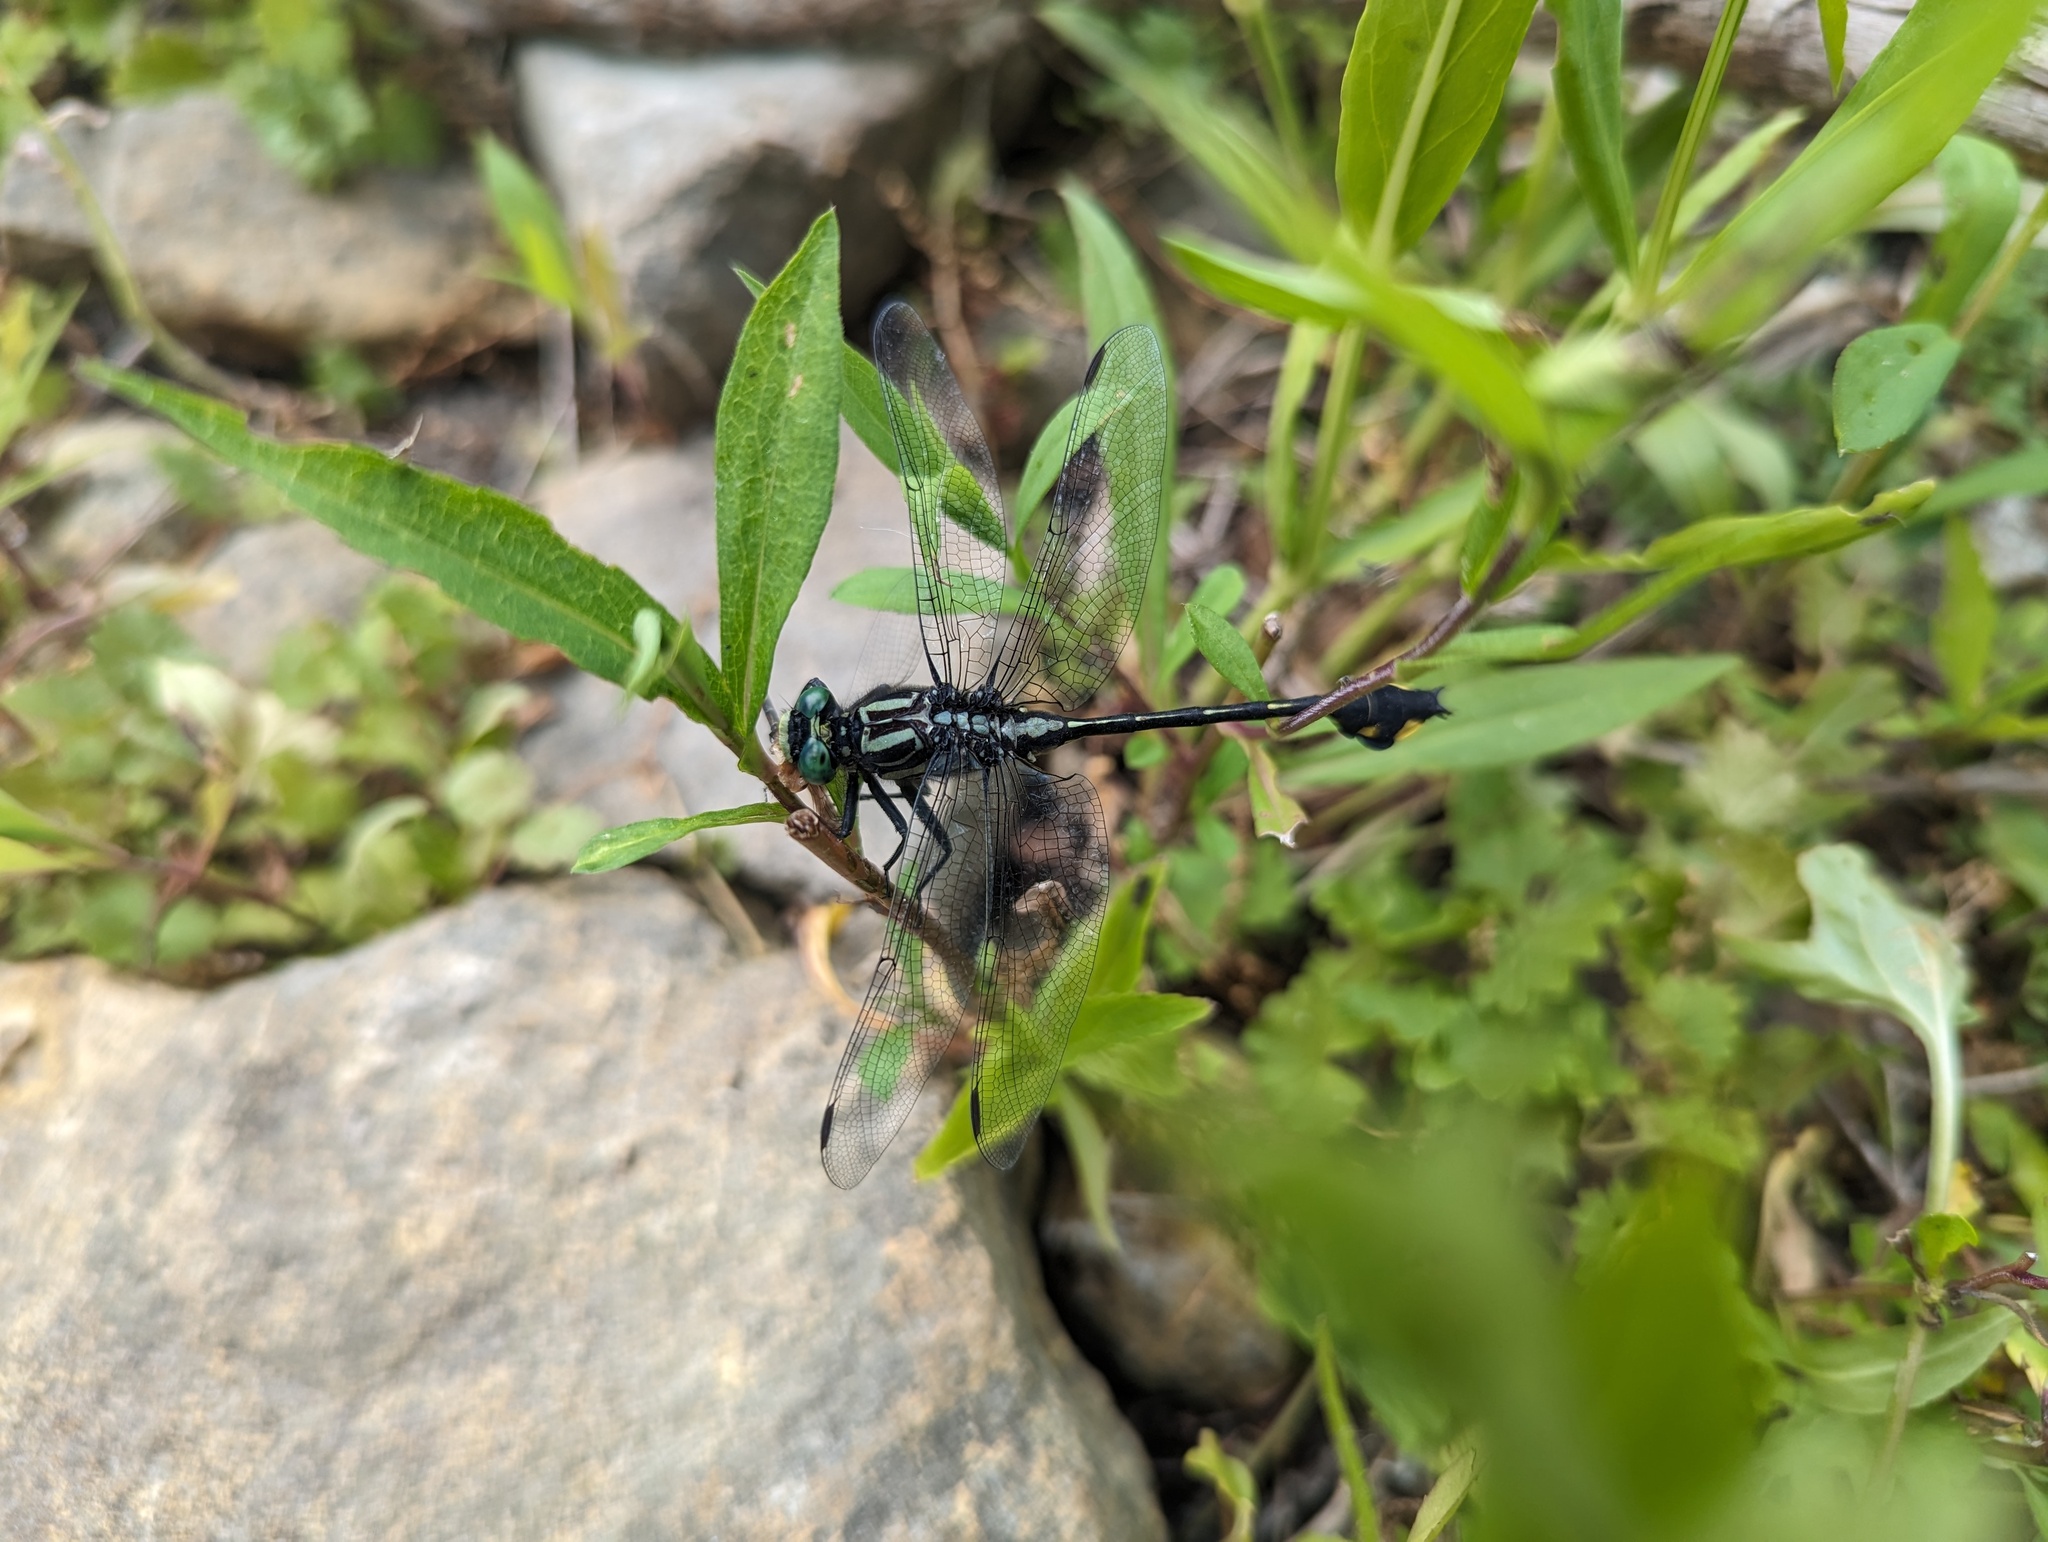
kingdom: Animalia
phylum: Arthropoda
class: Insecta
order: Odonata
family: Gomphidae
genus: Gomphurus
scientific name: Gomphurus vastus
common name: Cobra clubtail
